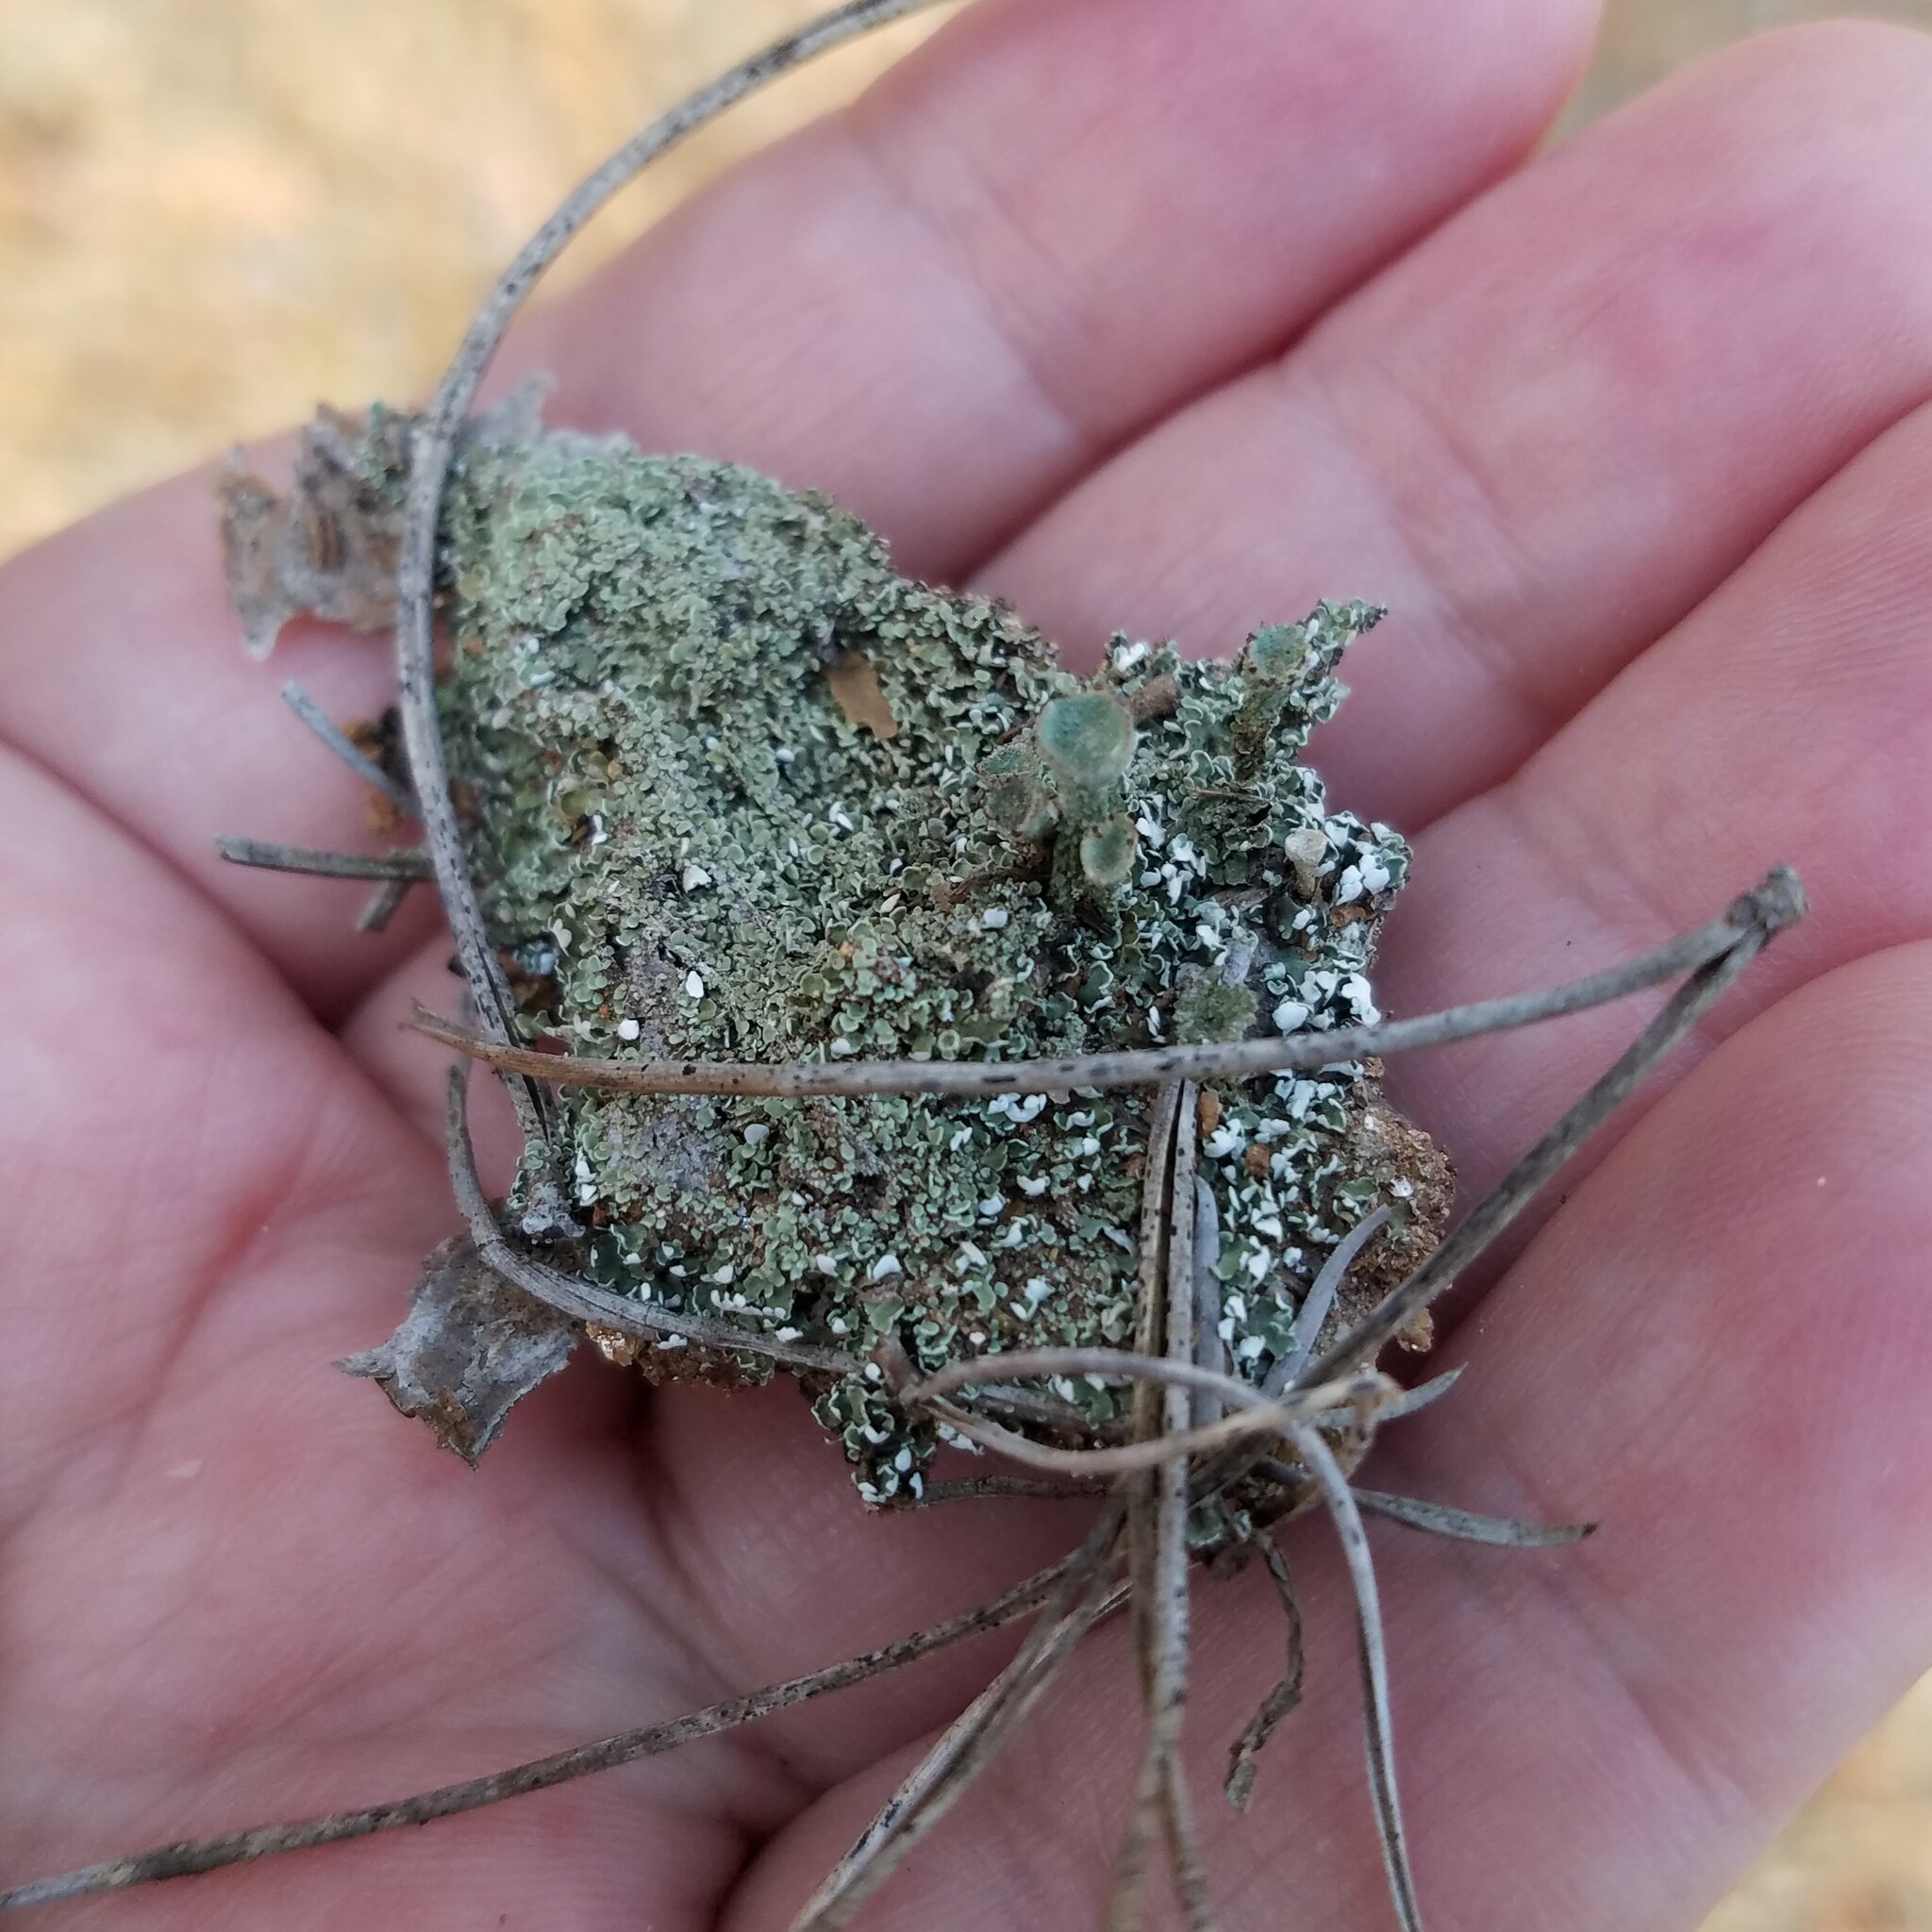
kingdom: Fungi
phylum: Ascomycota
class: Lecanoromycetes
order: Lecanorales
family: Cladoniaceae
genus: Cladonia
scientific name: Cladonia grayi
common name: Gray's cup lichen
